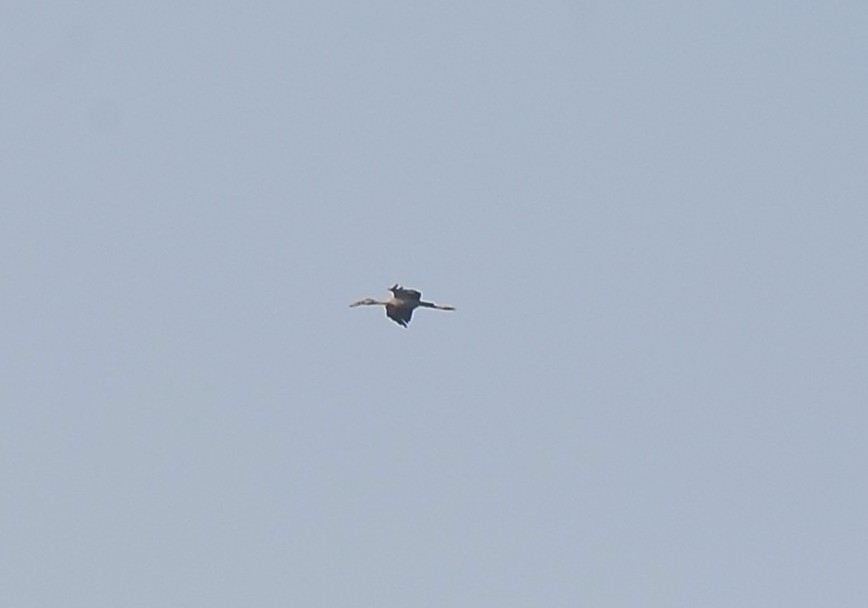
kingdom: Animalia
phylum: Chordata
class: Aves
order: Ciconiiformes
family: Ciconiidae
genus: Anastomus
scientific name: Anastomus oscitans
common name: Asian openbill
